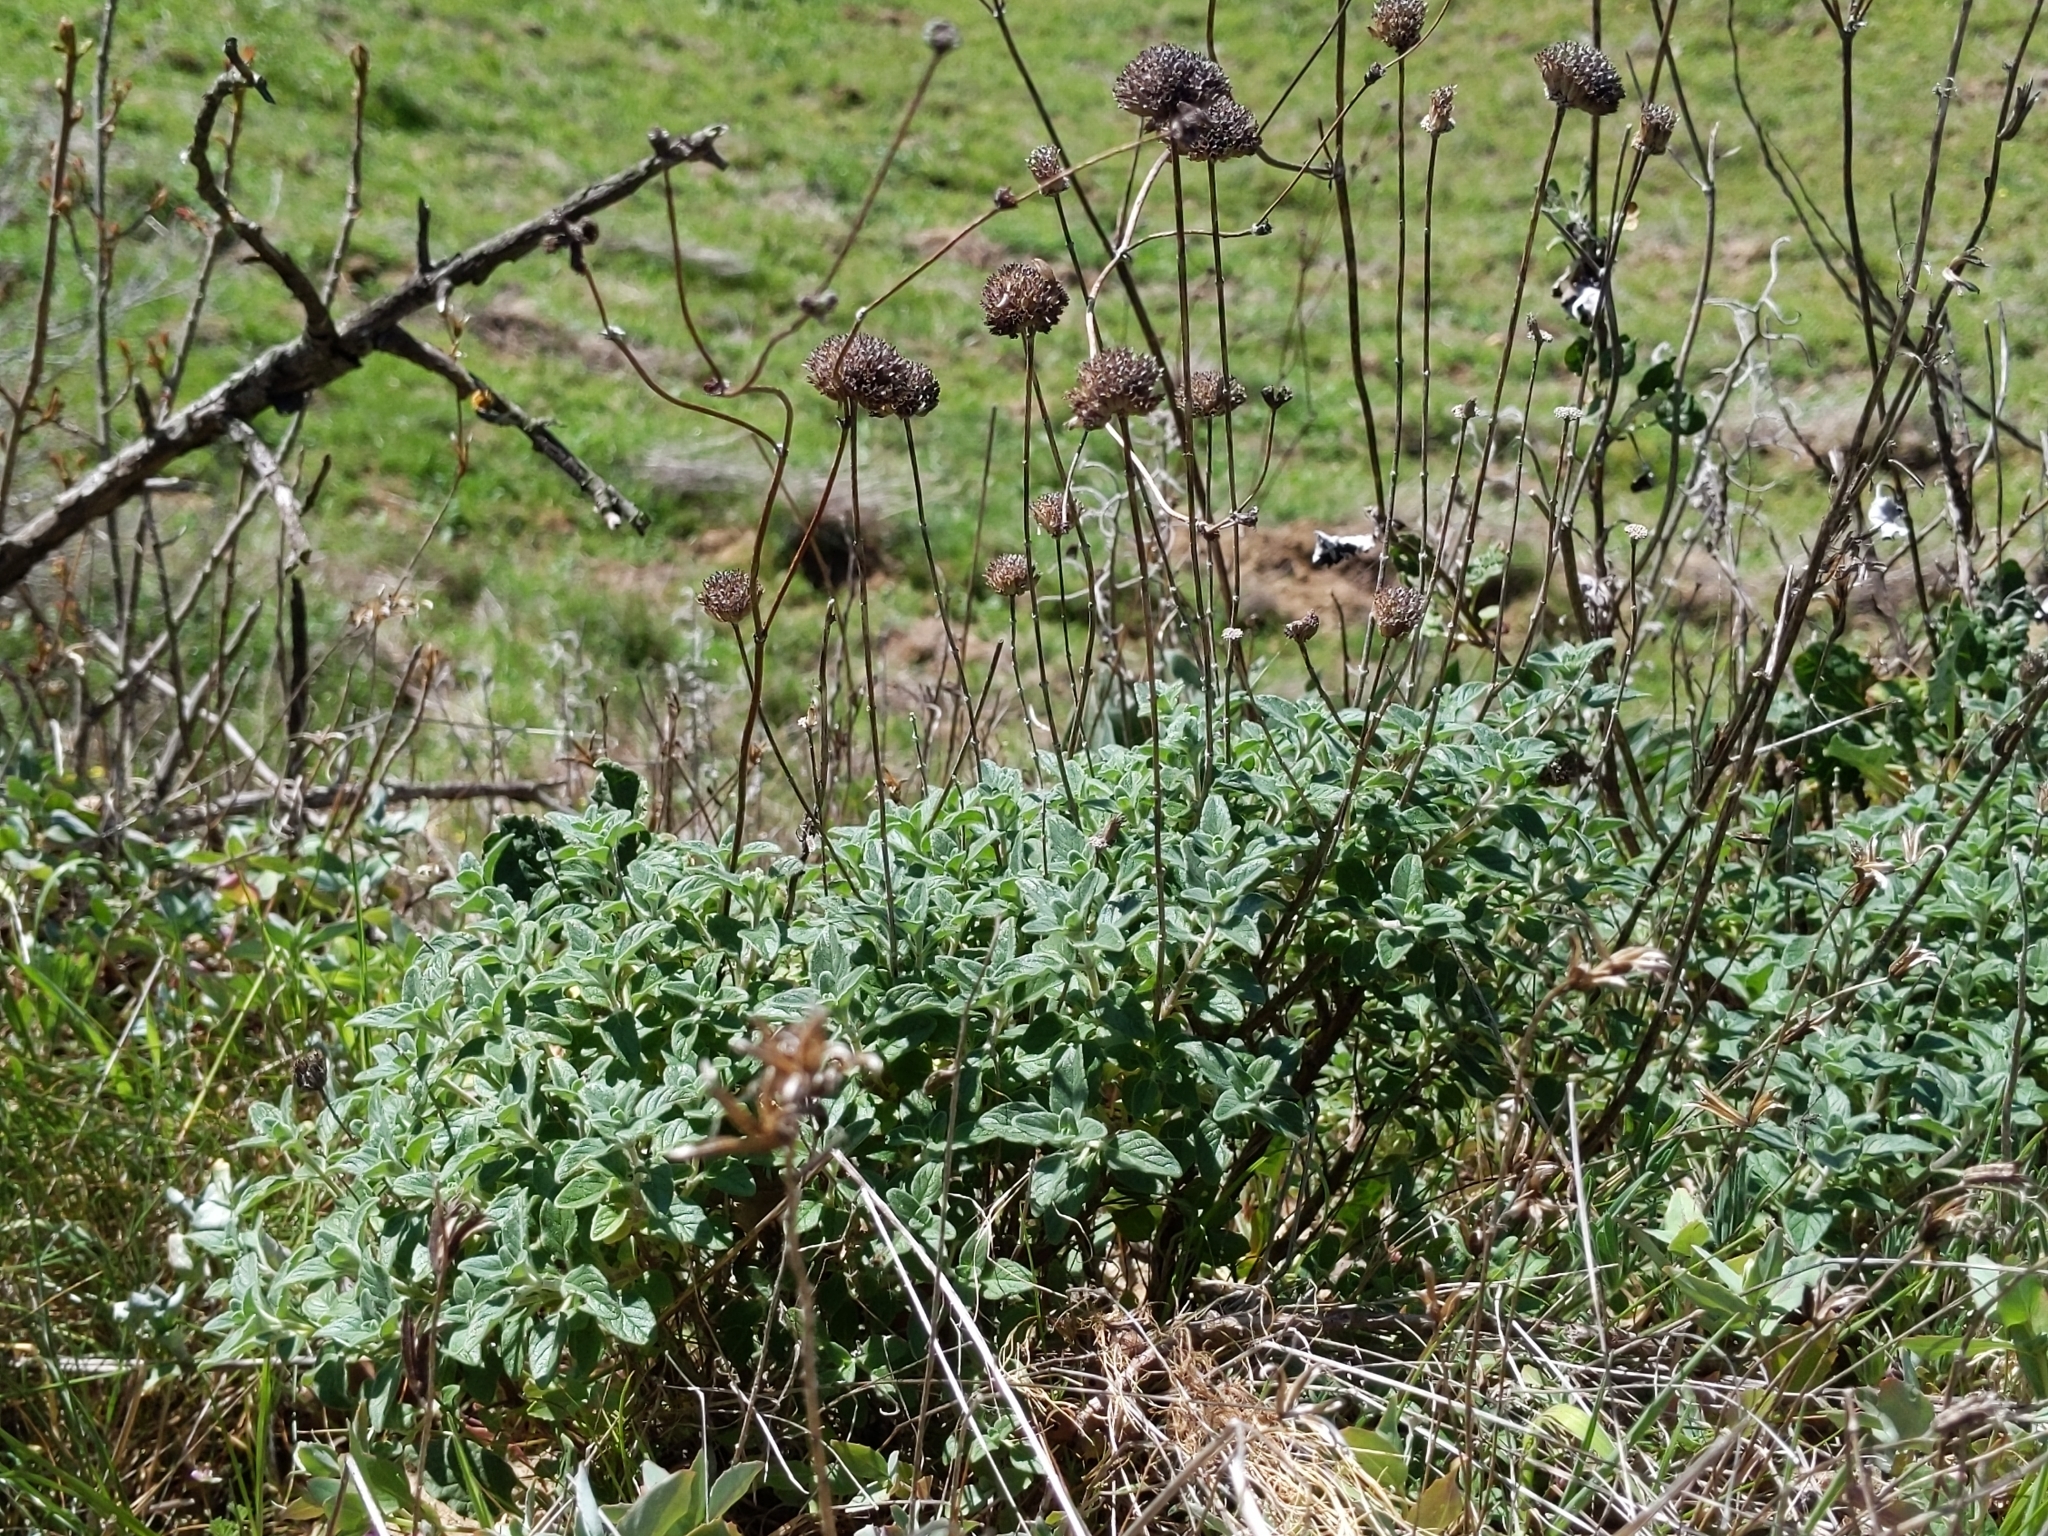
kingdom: Plantae
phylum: Tracheophyta
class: Magnoliopsida
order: Lamiales
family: Lamiaceae
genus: Monardella
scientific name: Monardella odoratissima
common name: Pacific monardella
